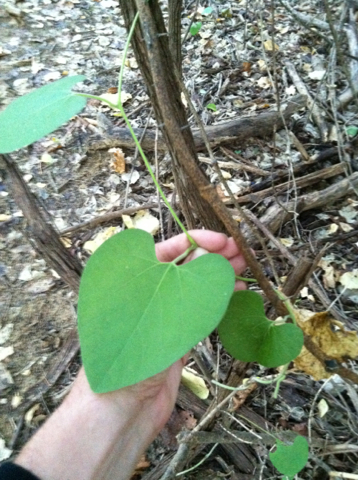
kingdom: Plantae
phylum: Tracheophyta
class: Magnoliopsida
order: Piperales
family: Aristolochiaceae
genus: Isotrema
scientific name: Isotrema tomentosum
